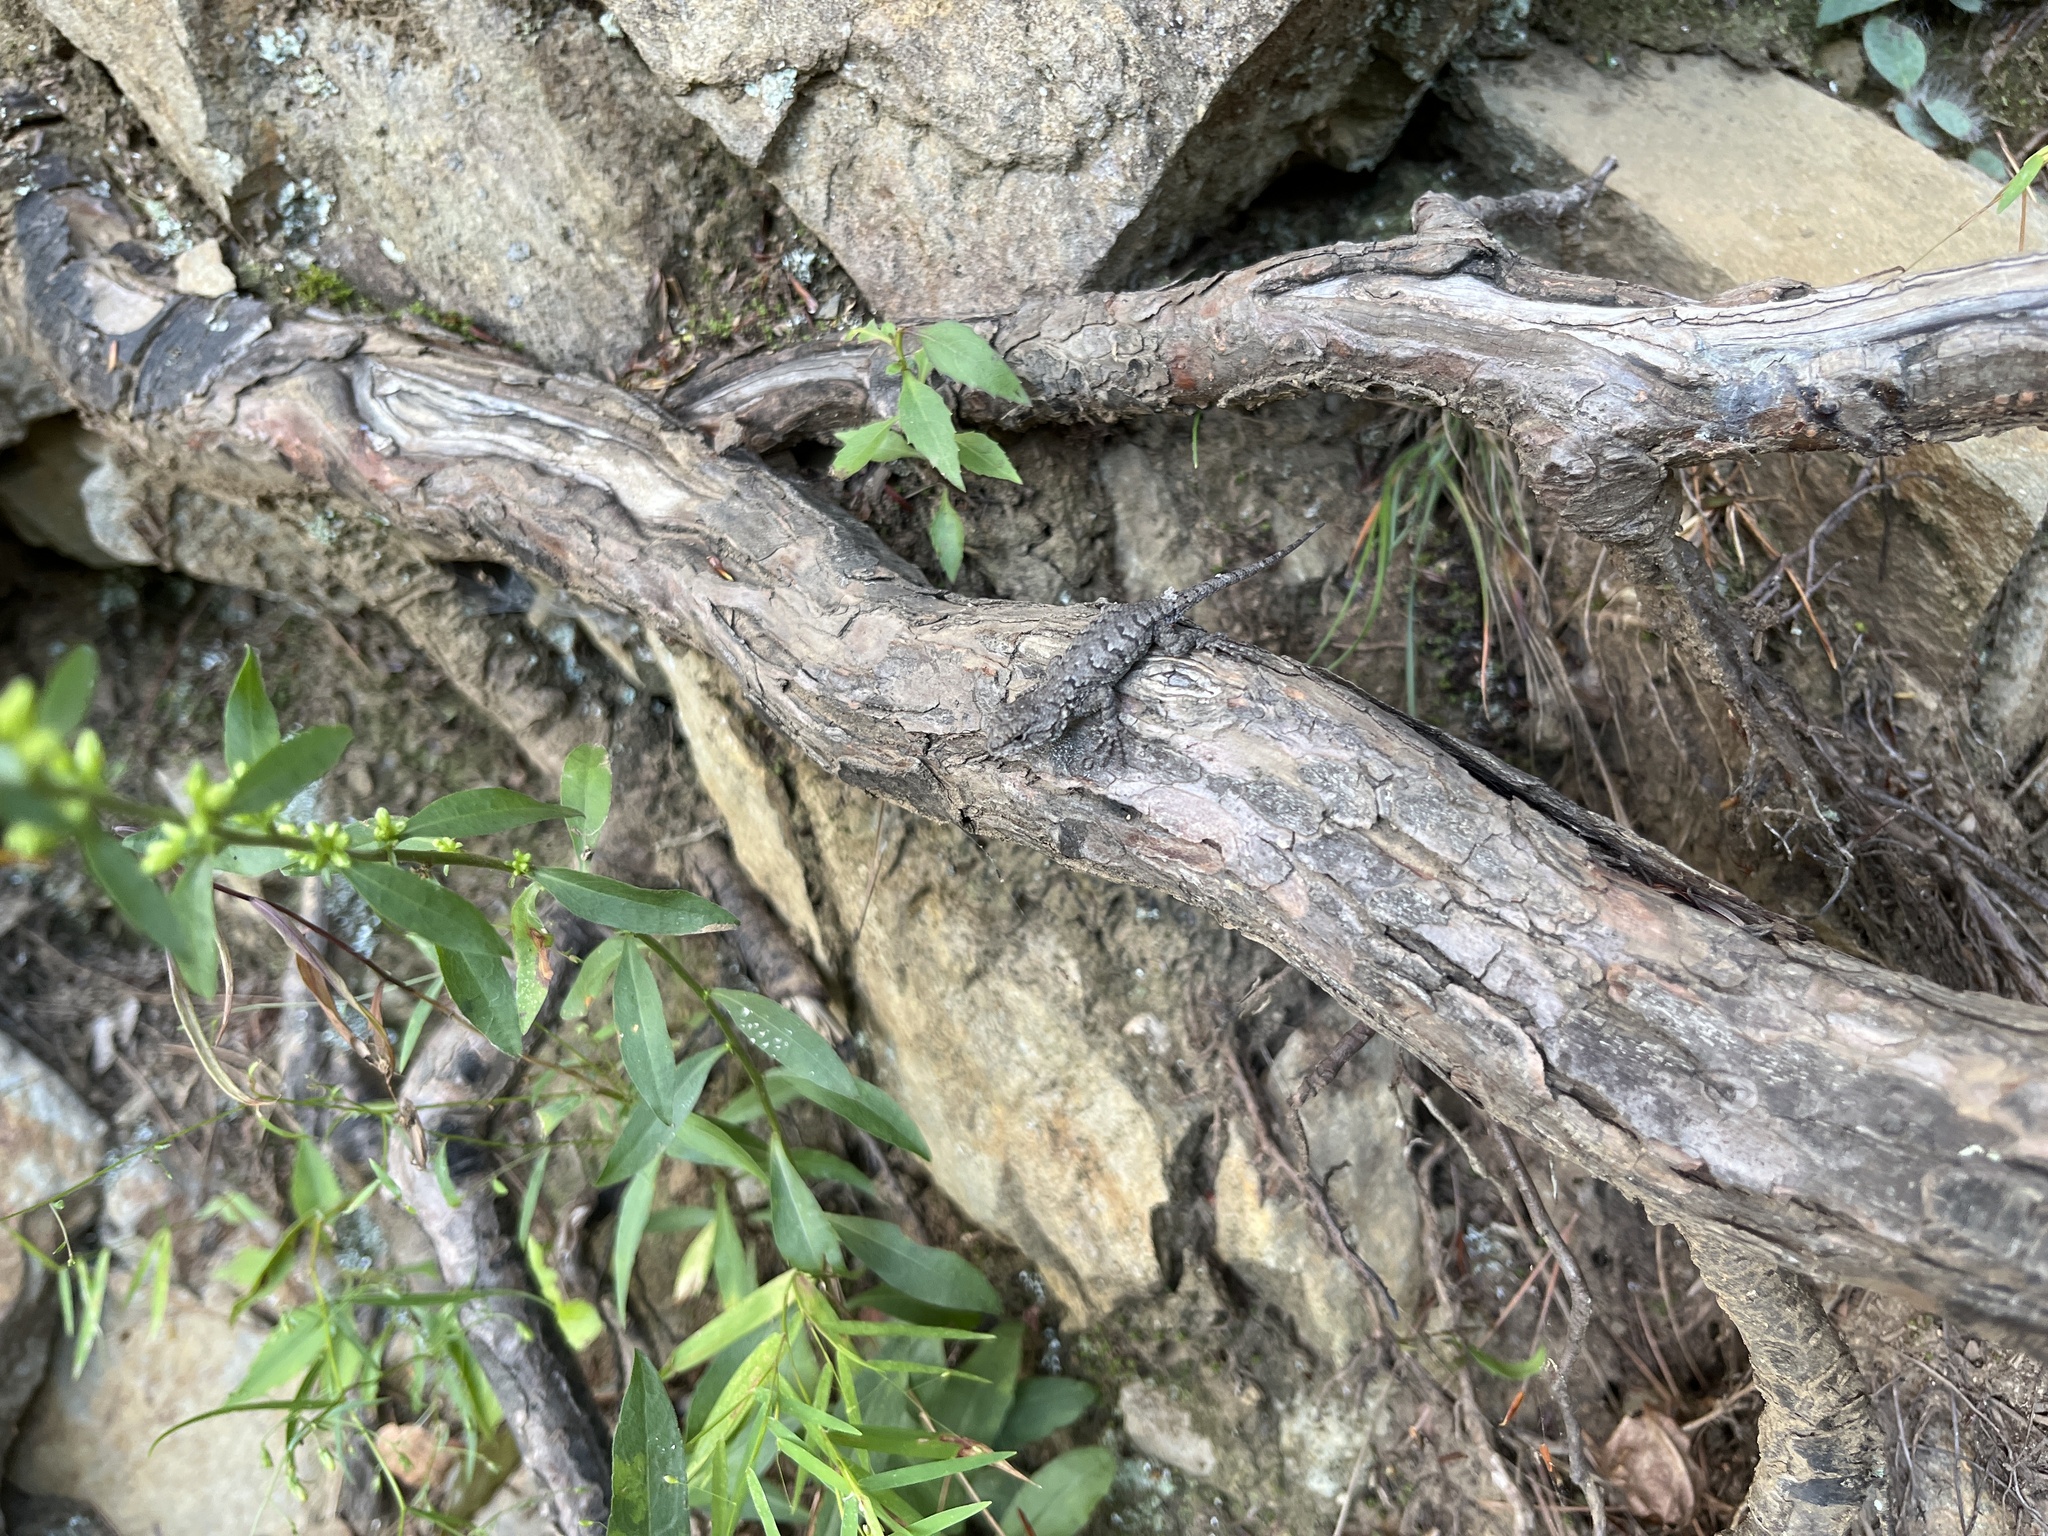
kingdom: Animalia
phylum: Chordata
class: Squamata
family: Phrynosomatidae
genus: Sceloporus
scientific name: Sceloporus undulatus
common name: Eastern fence lizard
